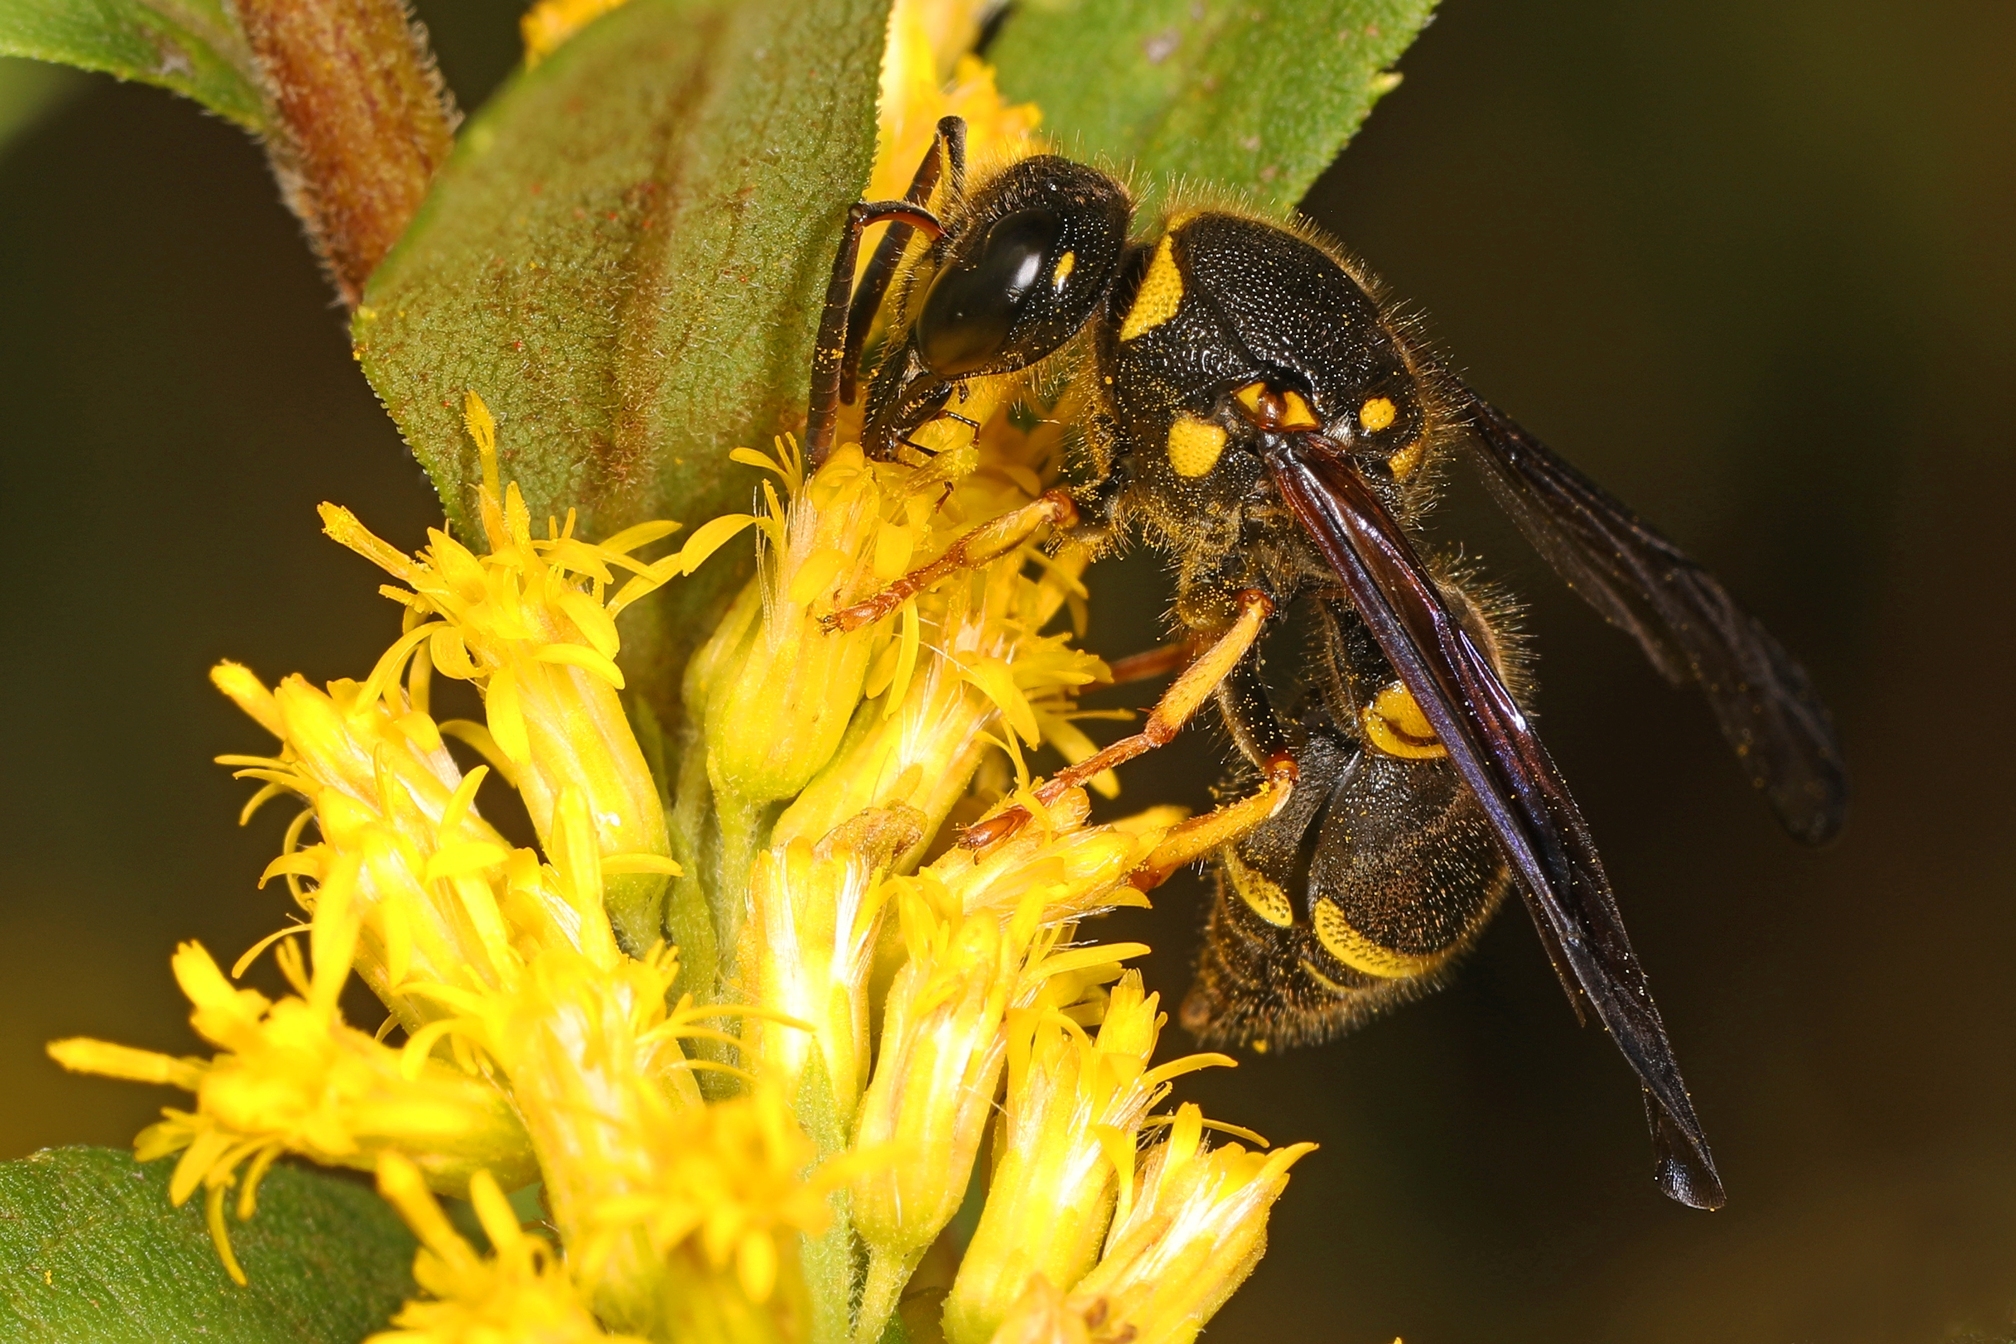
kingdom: Animalia
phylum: Arthropoda
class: Insecta
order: Hymenoptera
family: Vespidae
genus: Ancistrocerus
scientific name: Ancistrocerus campestris
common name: Smiling mason wasp
